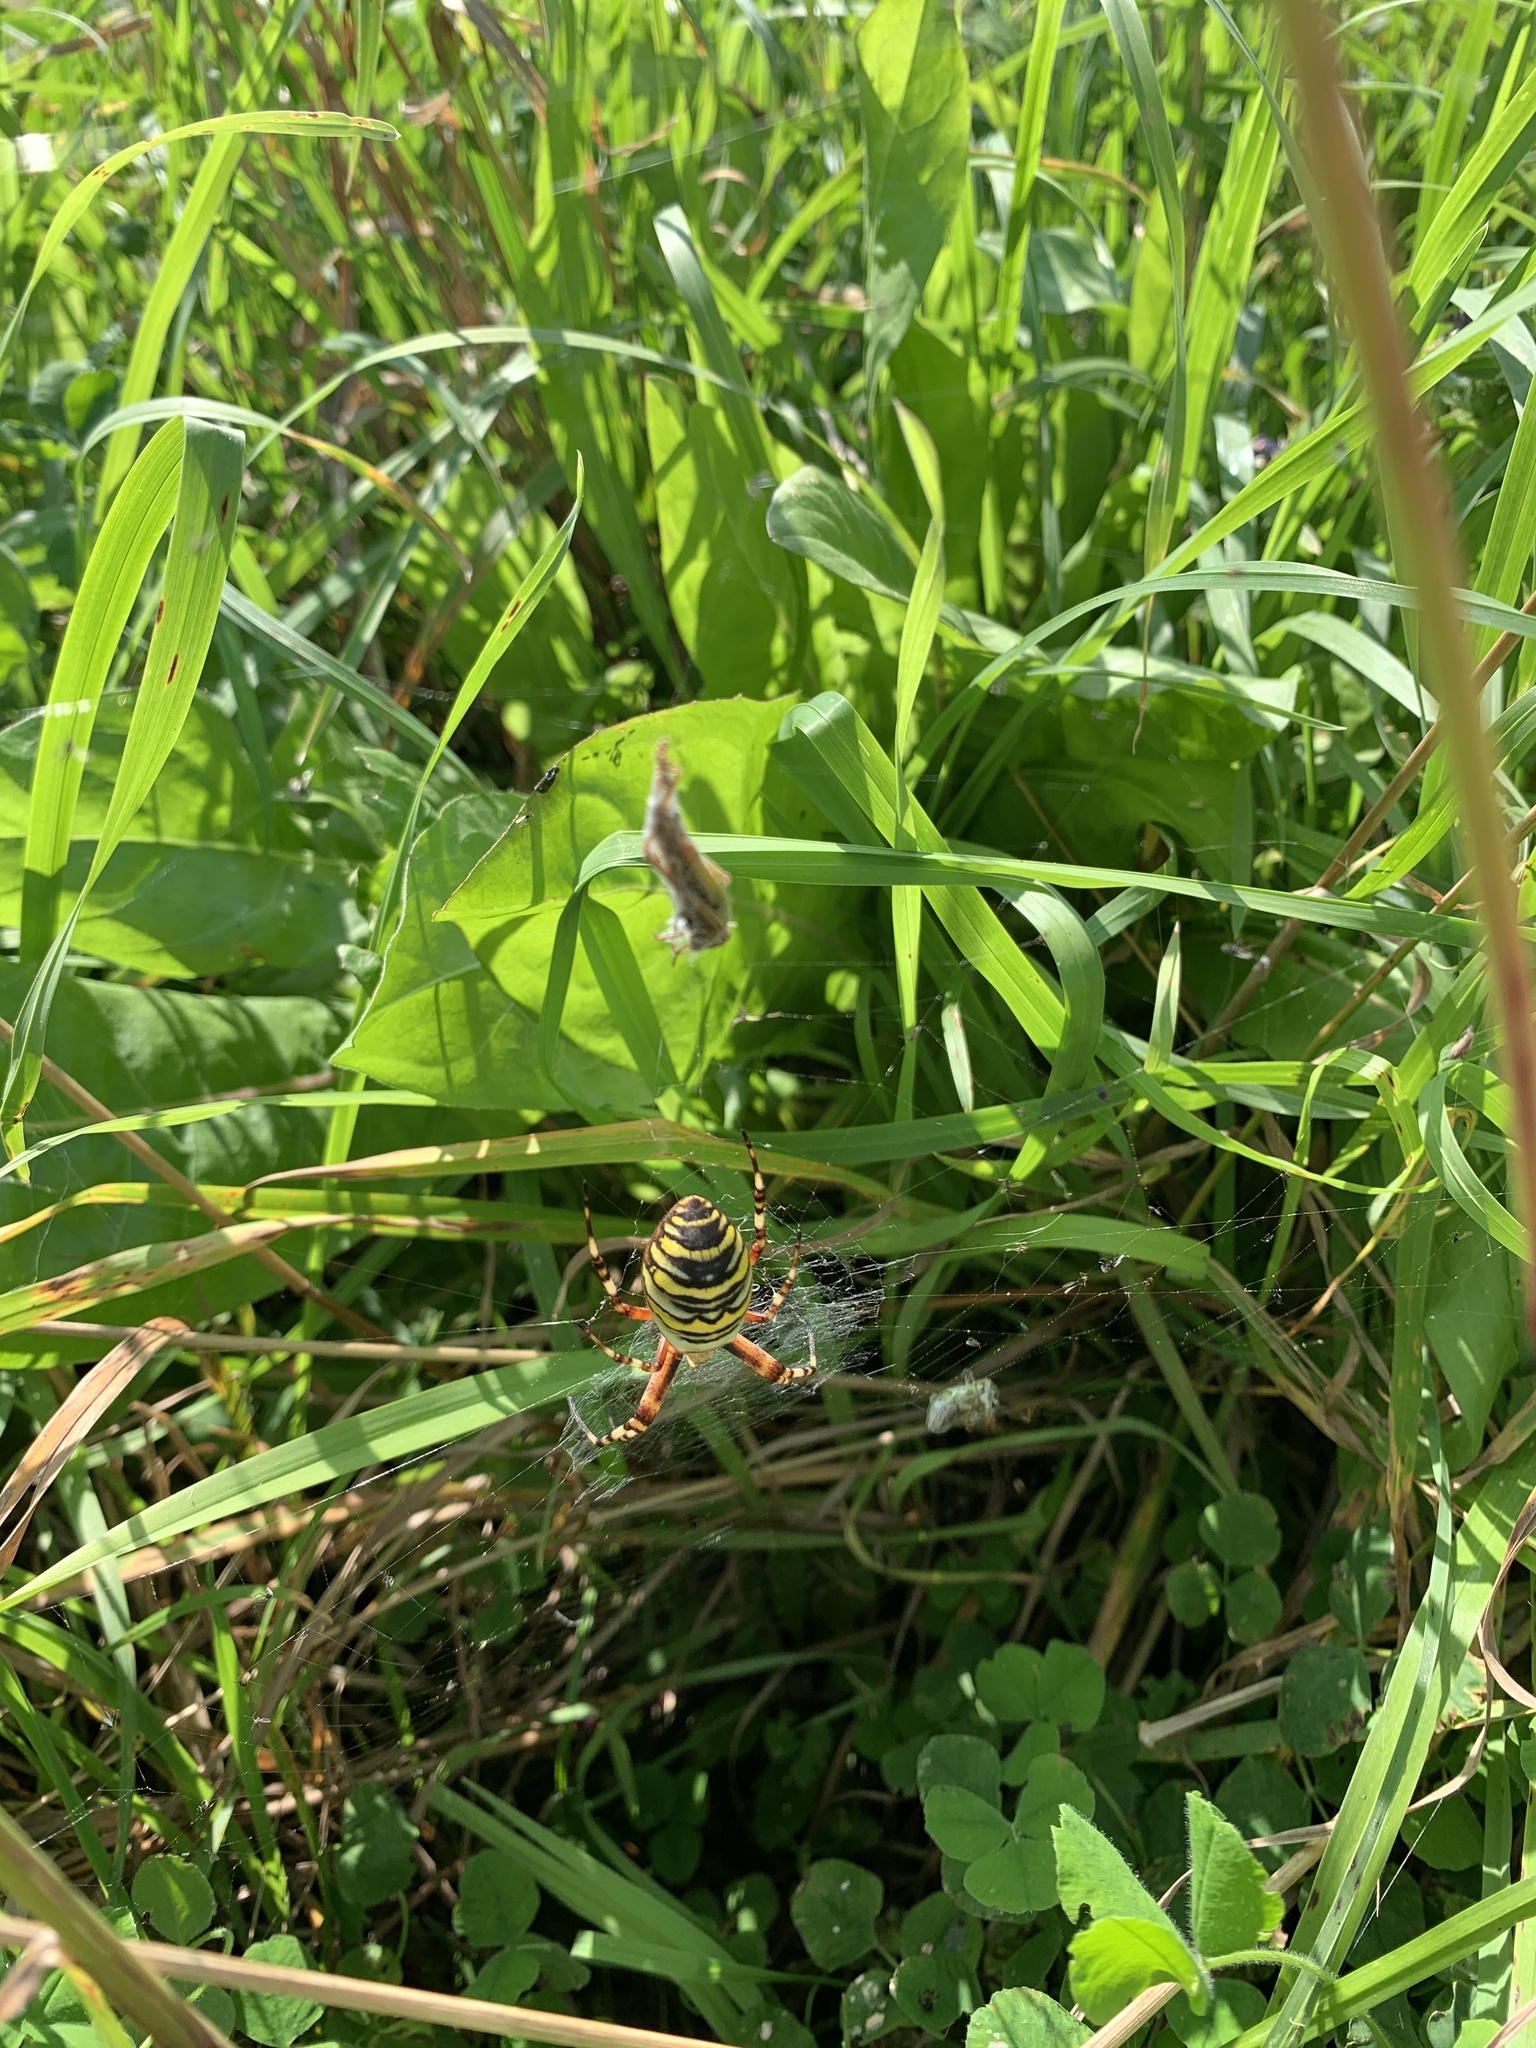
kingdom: Animalia
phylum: Arthropoda
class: Arachnida
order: Araneae
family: Araneidae
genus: Argiope
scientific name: Argiope bruennichi
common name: Wasp spider
